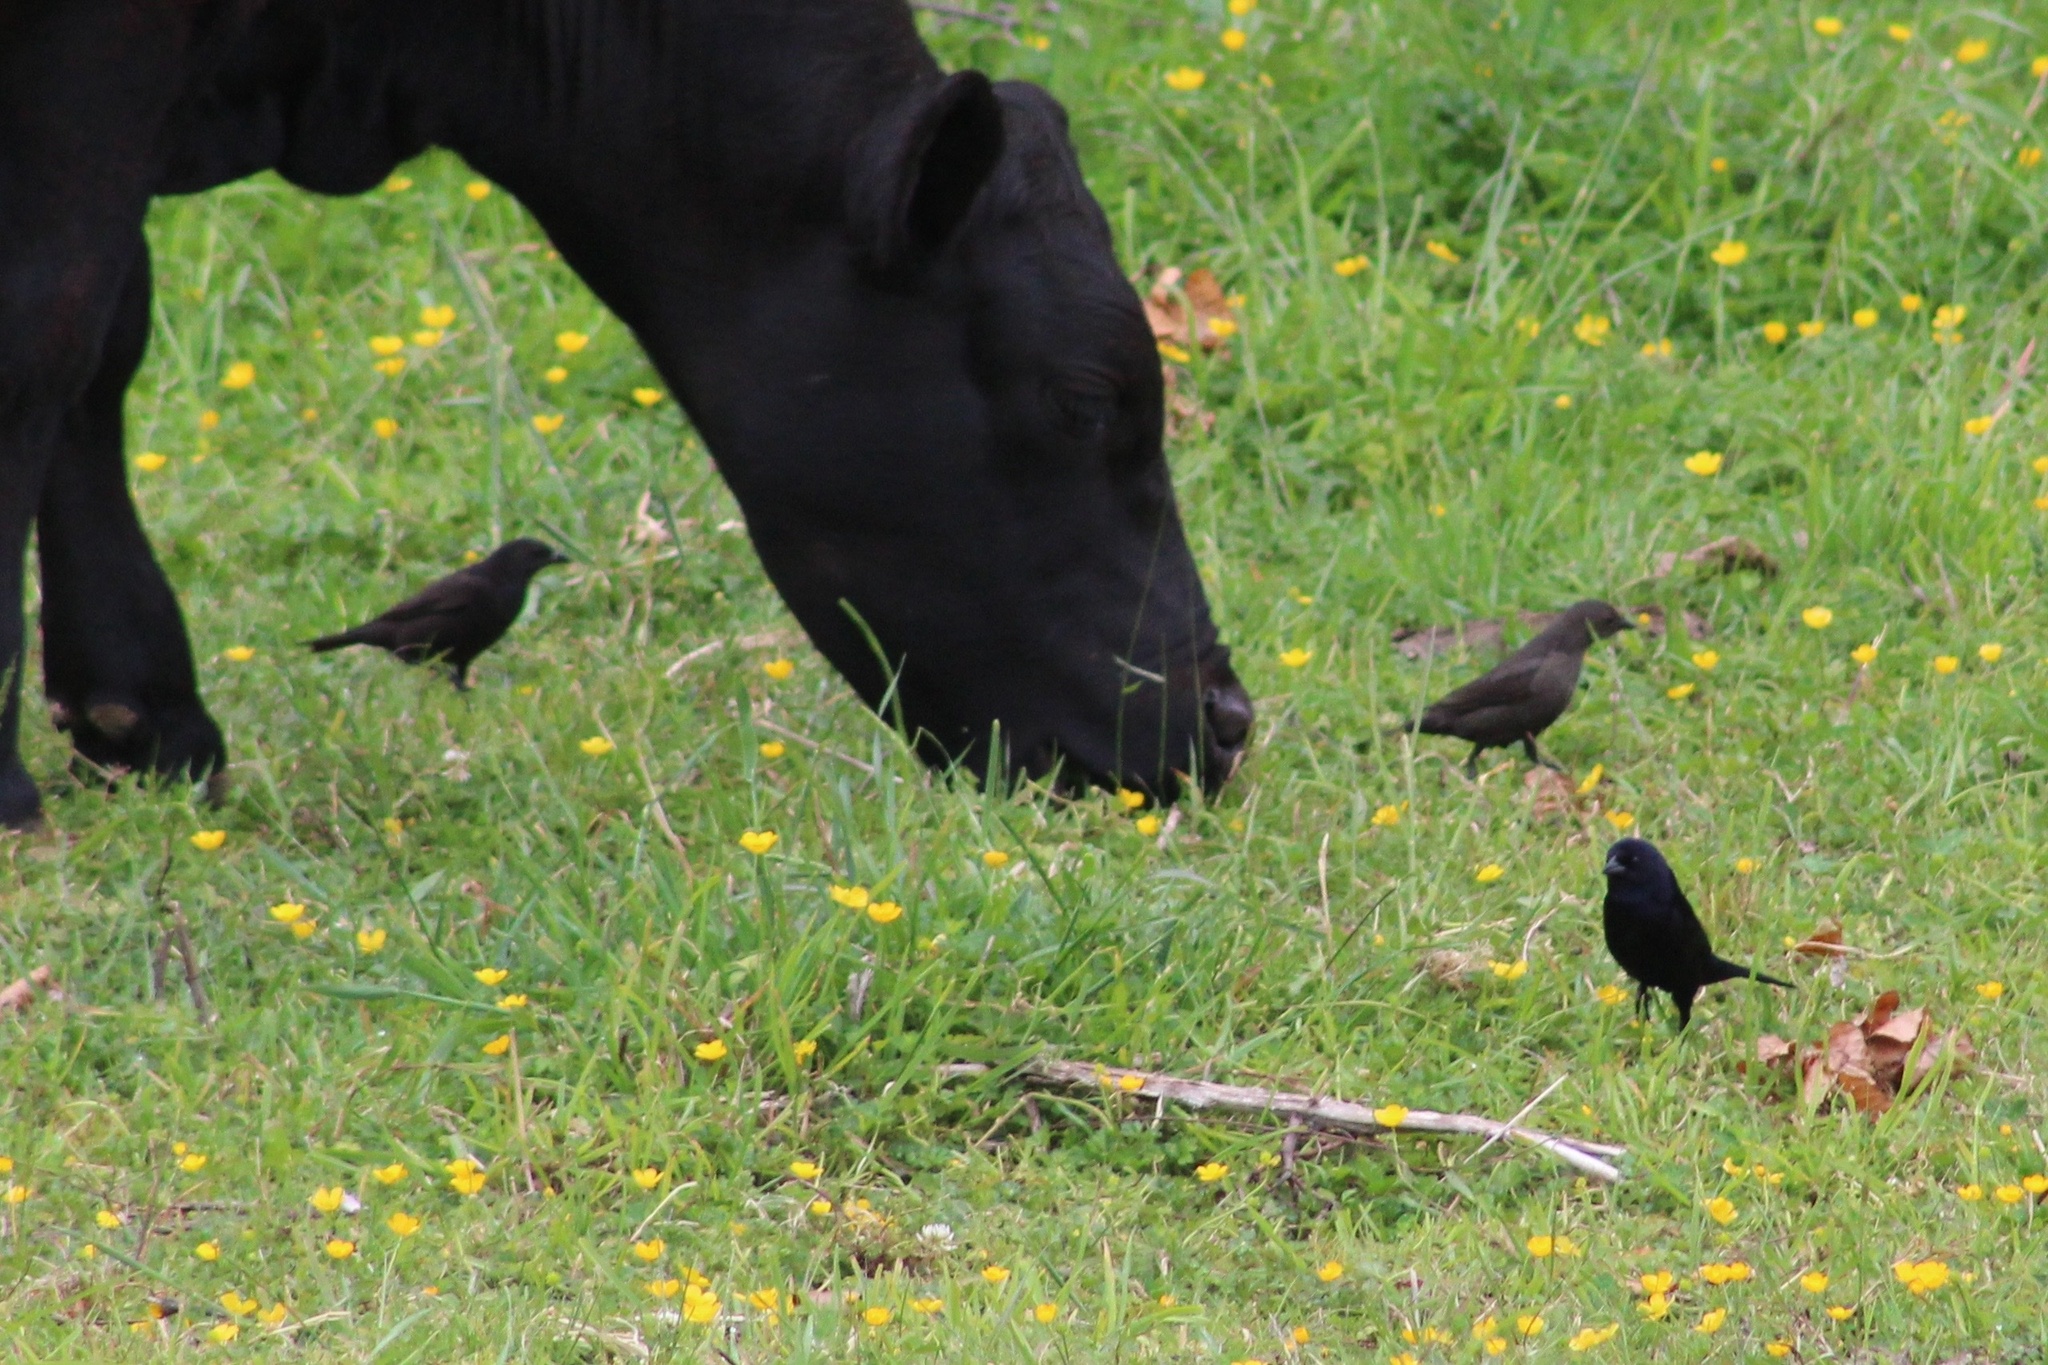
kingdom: Animalia
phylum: Chordata
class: Aves
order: Passeriformes
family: Icteridae
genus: Molothrus
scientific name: Molothrus bonariensis
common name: Shiny cowbird
